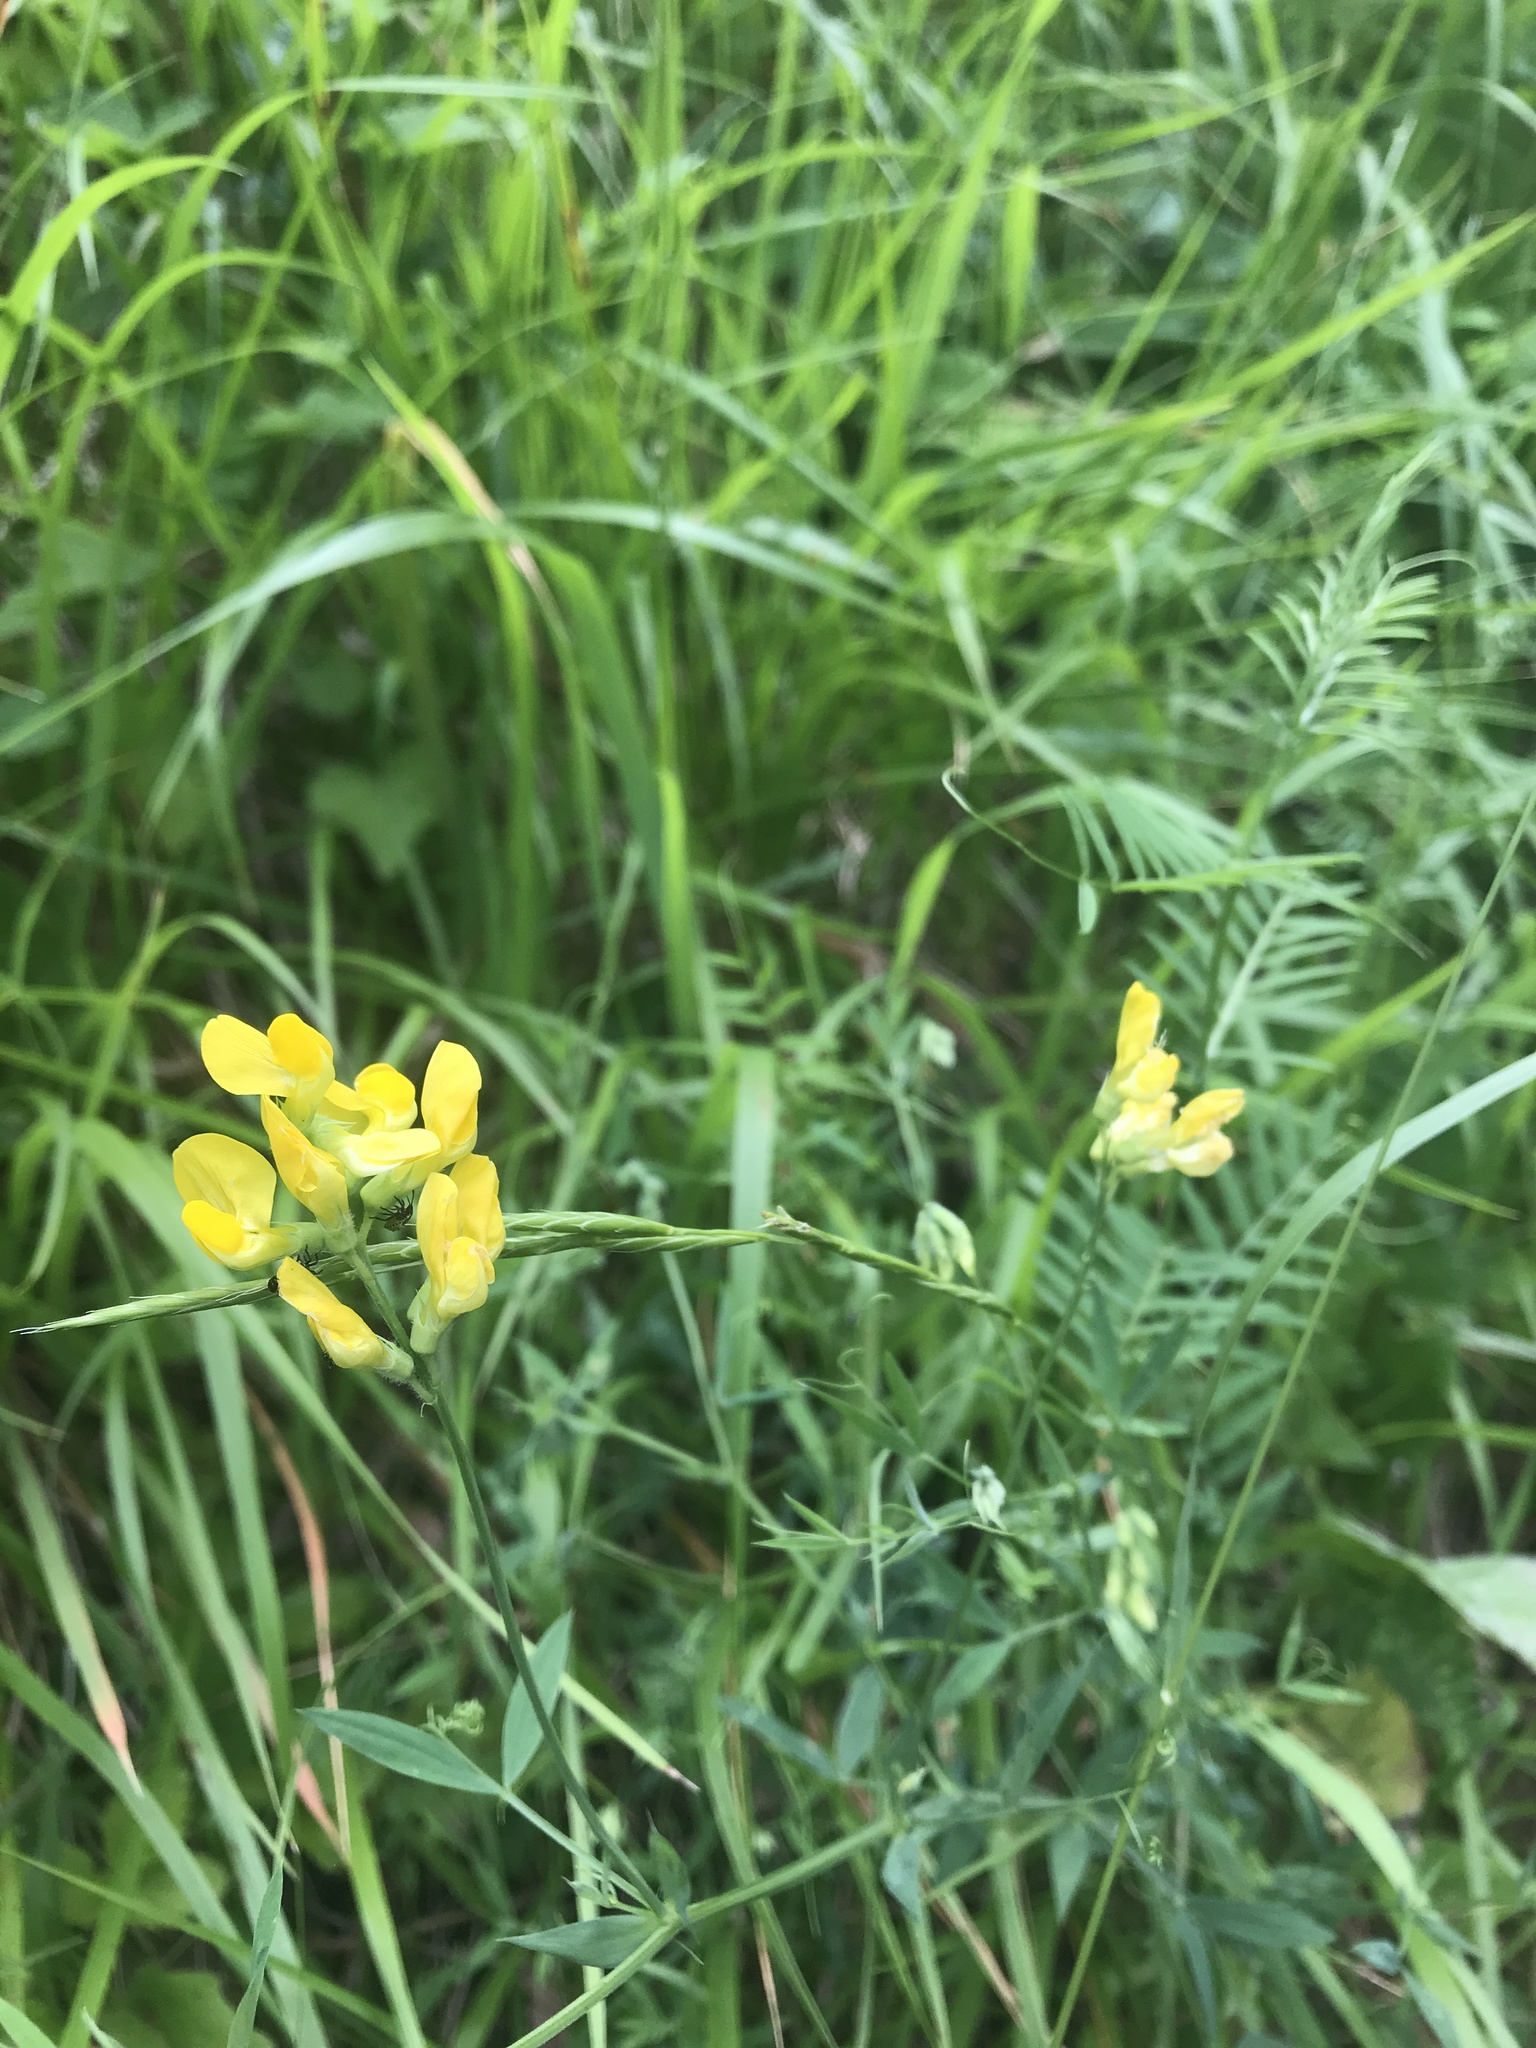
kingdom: Plantae
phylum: Tracheophyta
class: Magnoliopsida
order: Fabales
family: Fabaceae
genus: Lathyrus
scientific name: Lathyrus pratensis
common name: Meadow vetchling
